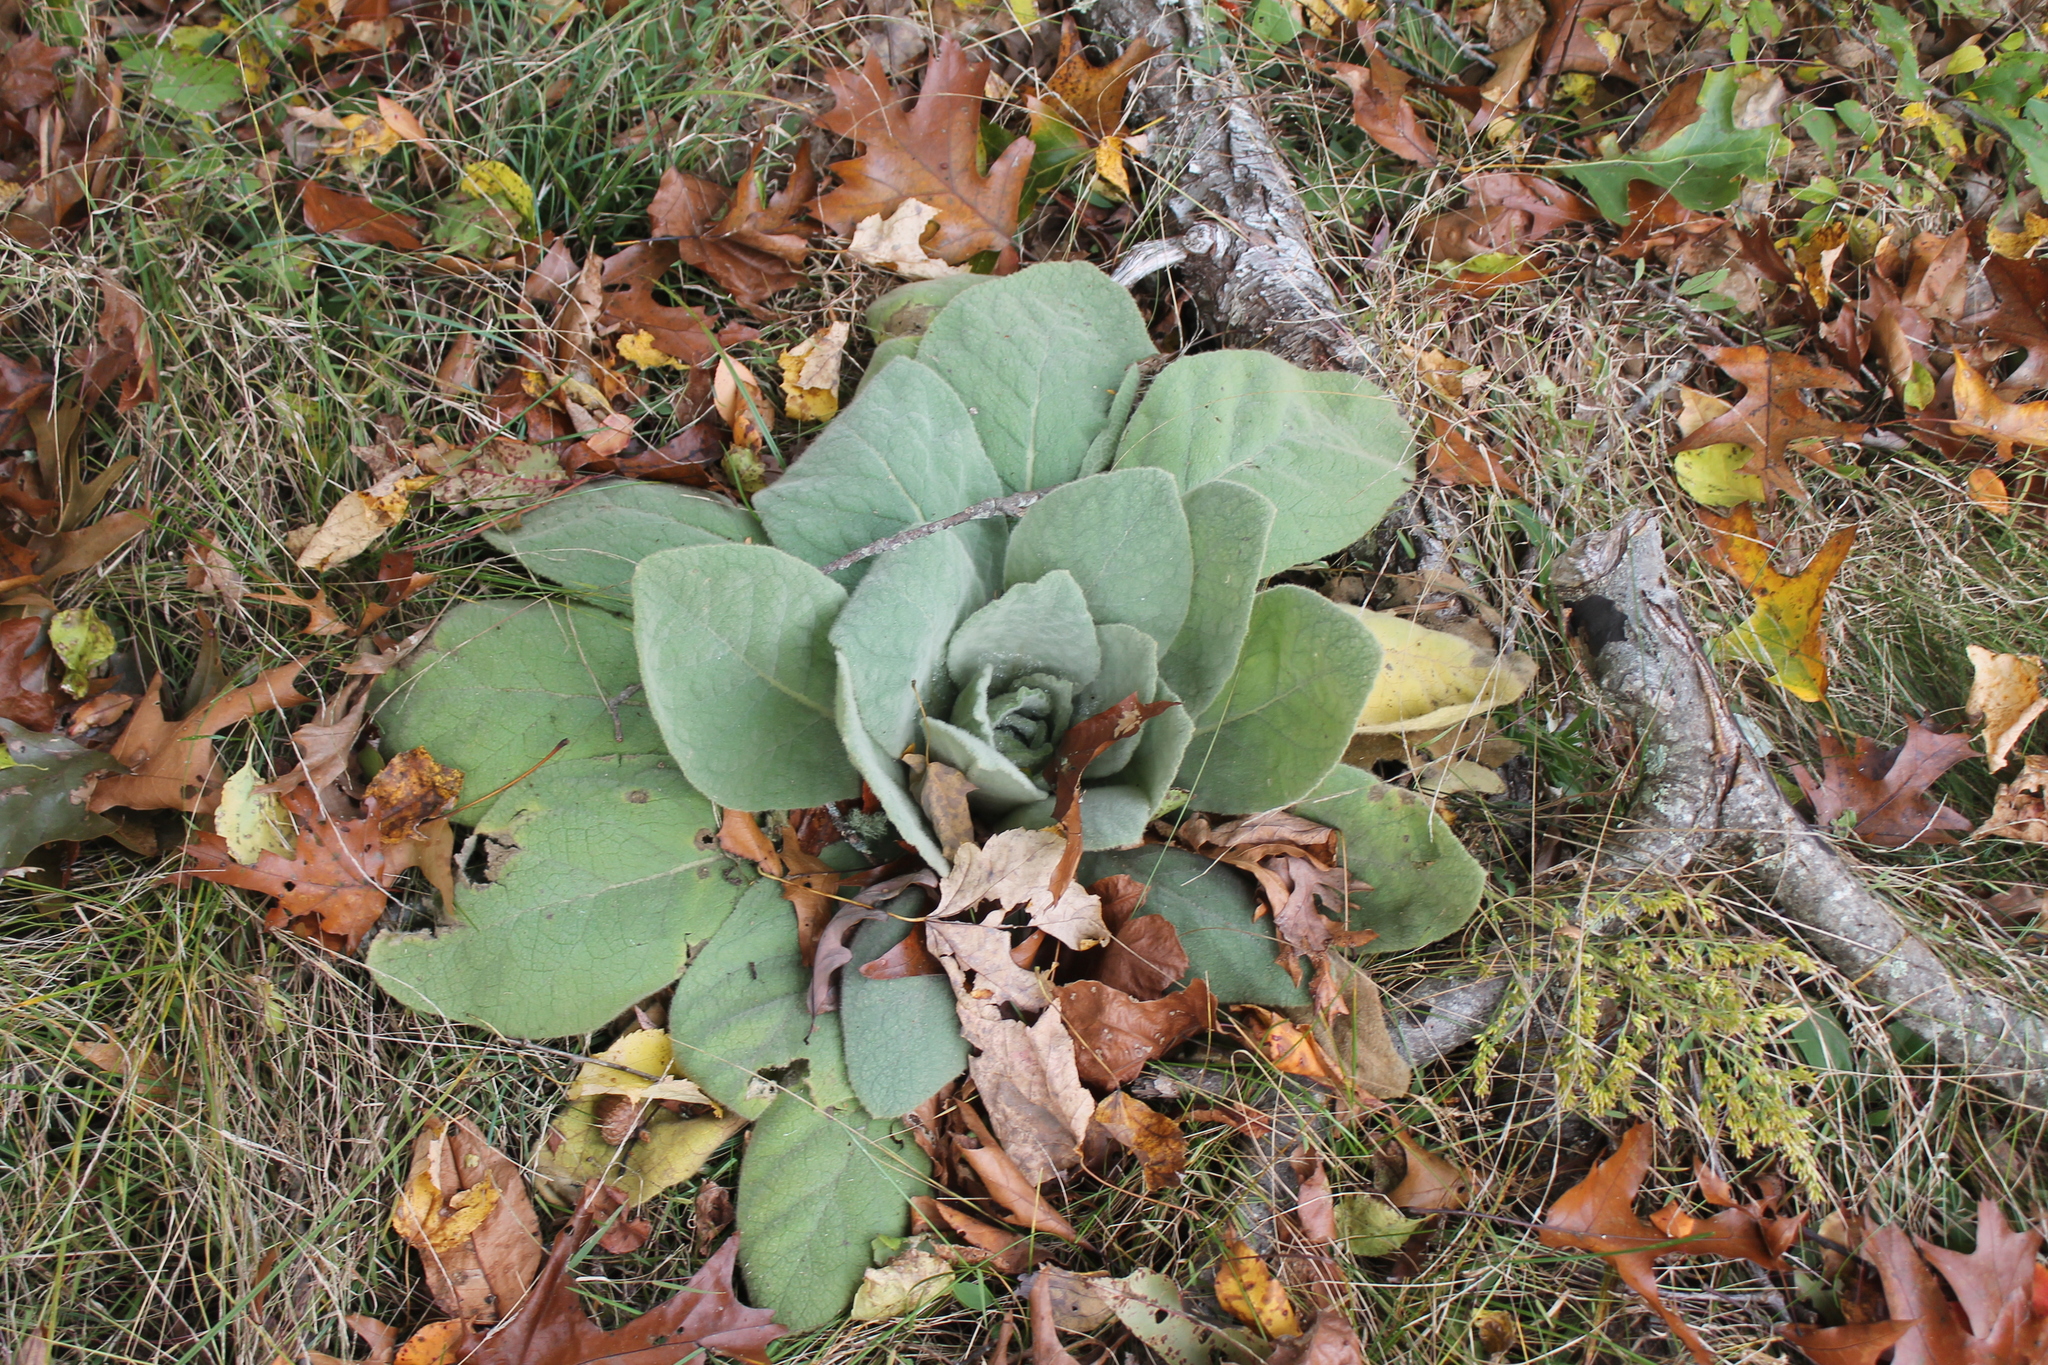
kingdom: Plantae
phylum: Tracheophyta
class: Magnoliopsida
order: Lamiales
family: Scrophulariaceae
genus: Verbascum
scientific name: Verbascum thapsus
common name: Common mullein
